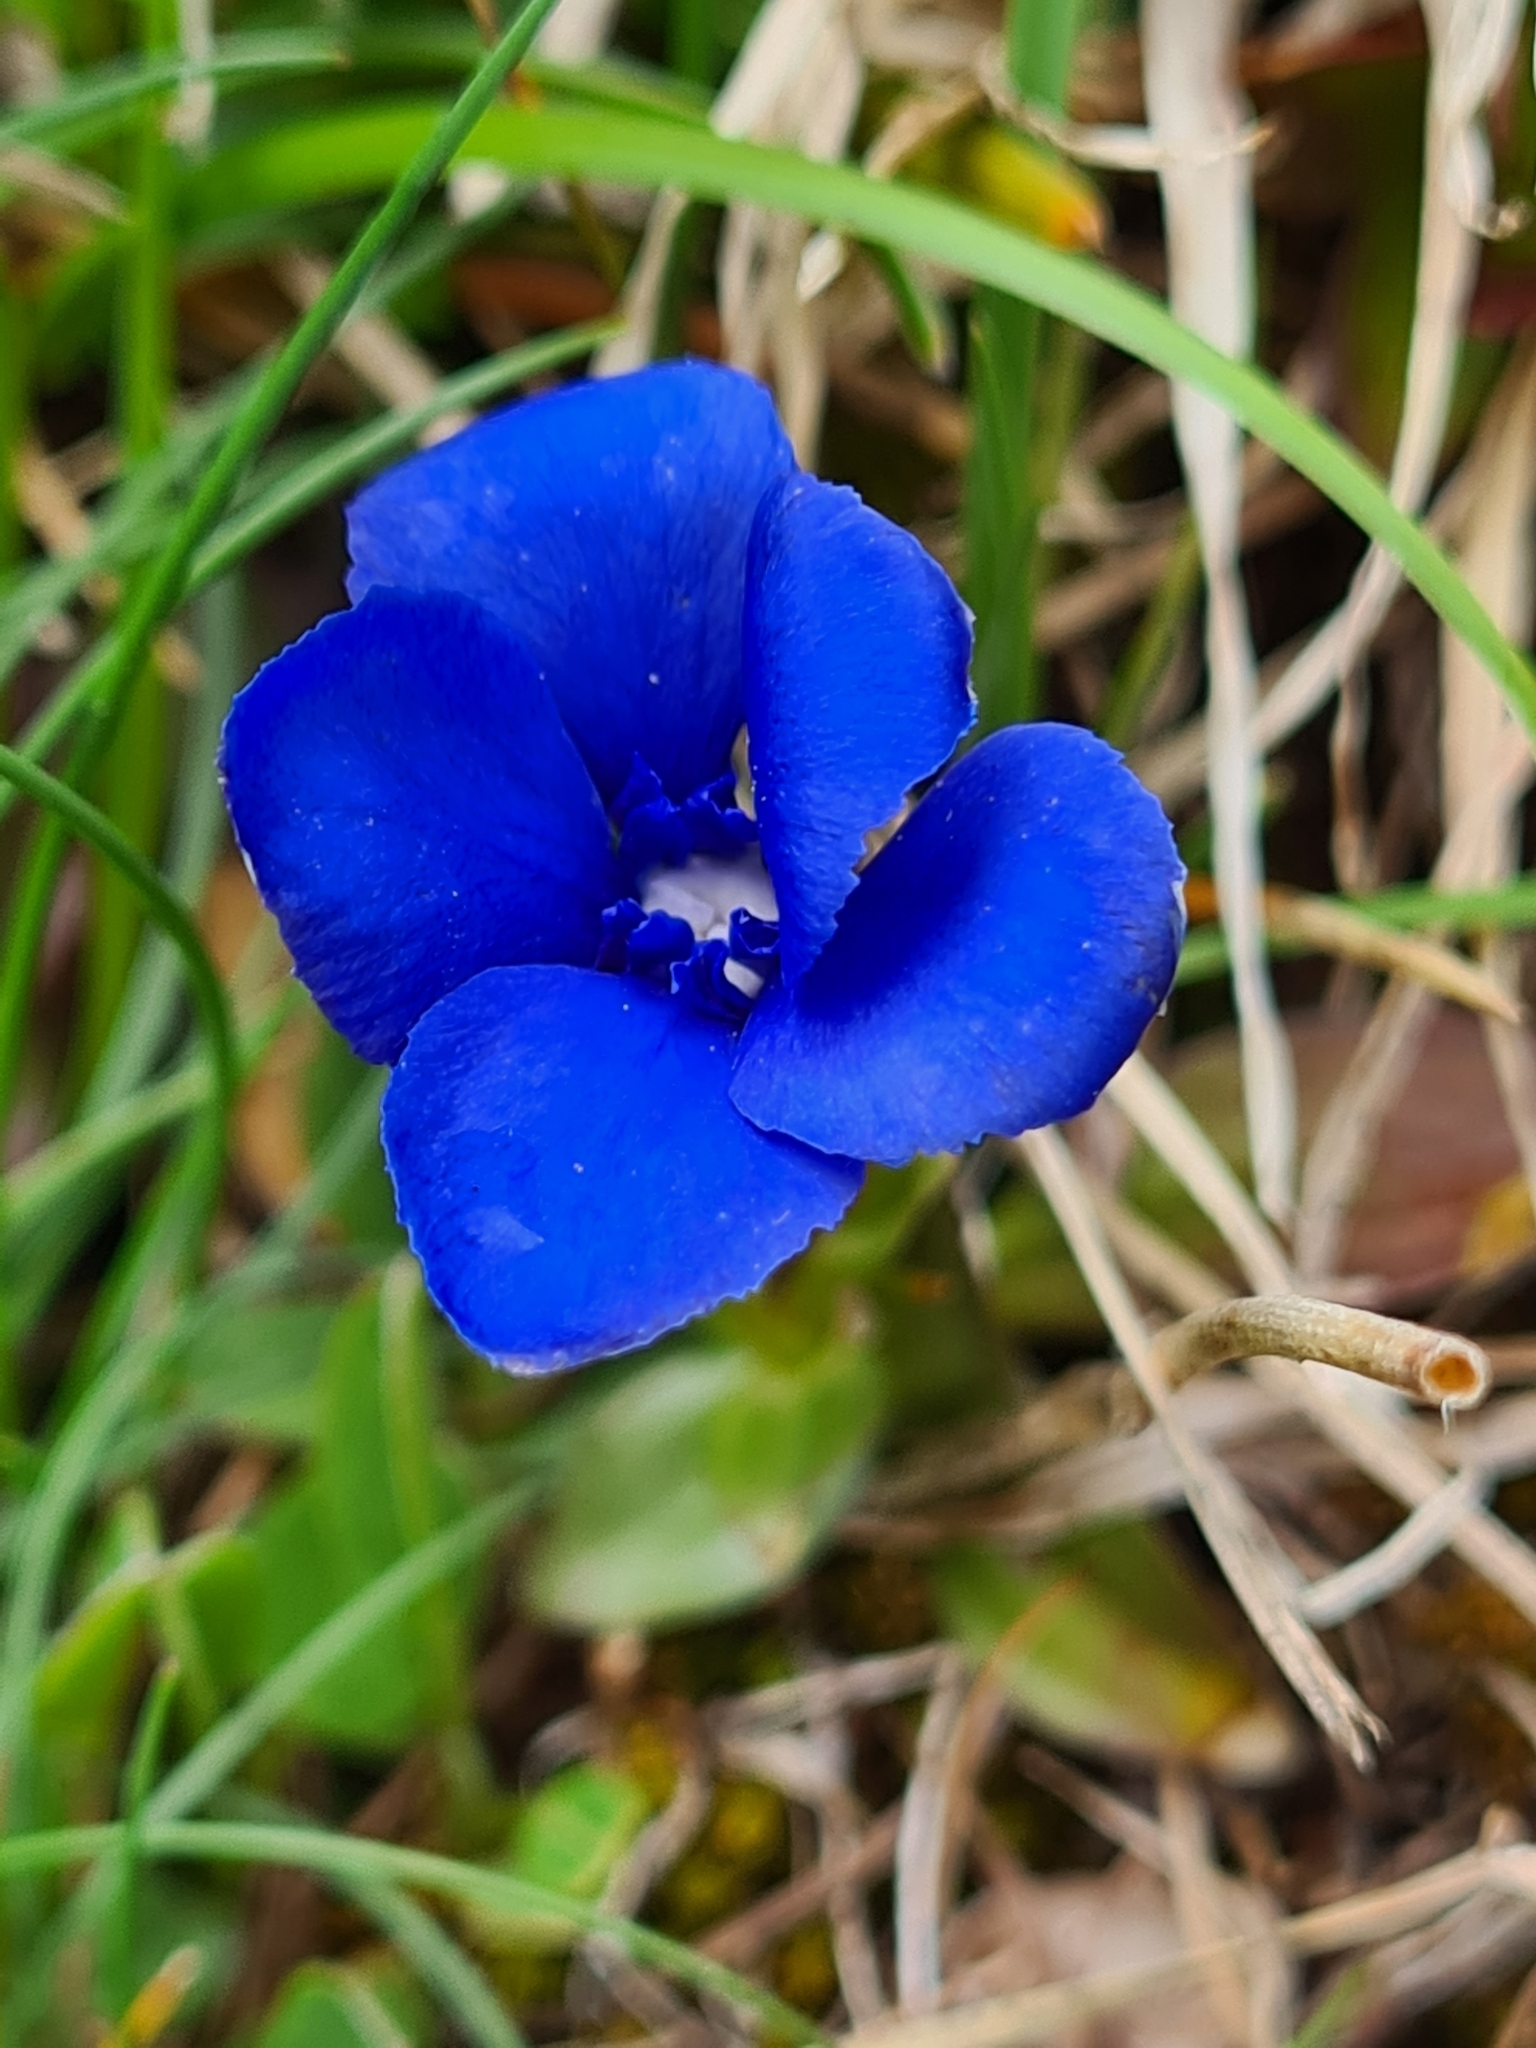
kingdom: Plantae
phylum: Tracheophyta
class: Magnoliopsida
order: Gentianales
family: Gentianaceae
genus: Gentiana
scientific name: Gentiana verna
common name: Spring gentian
